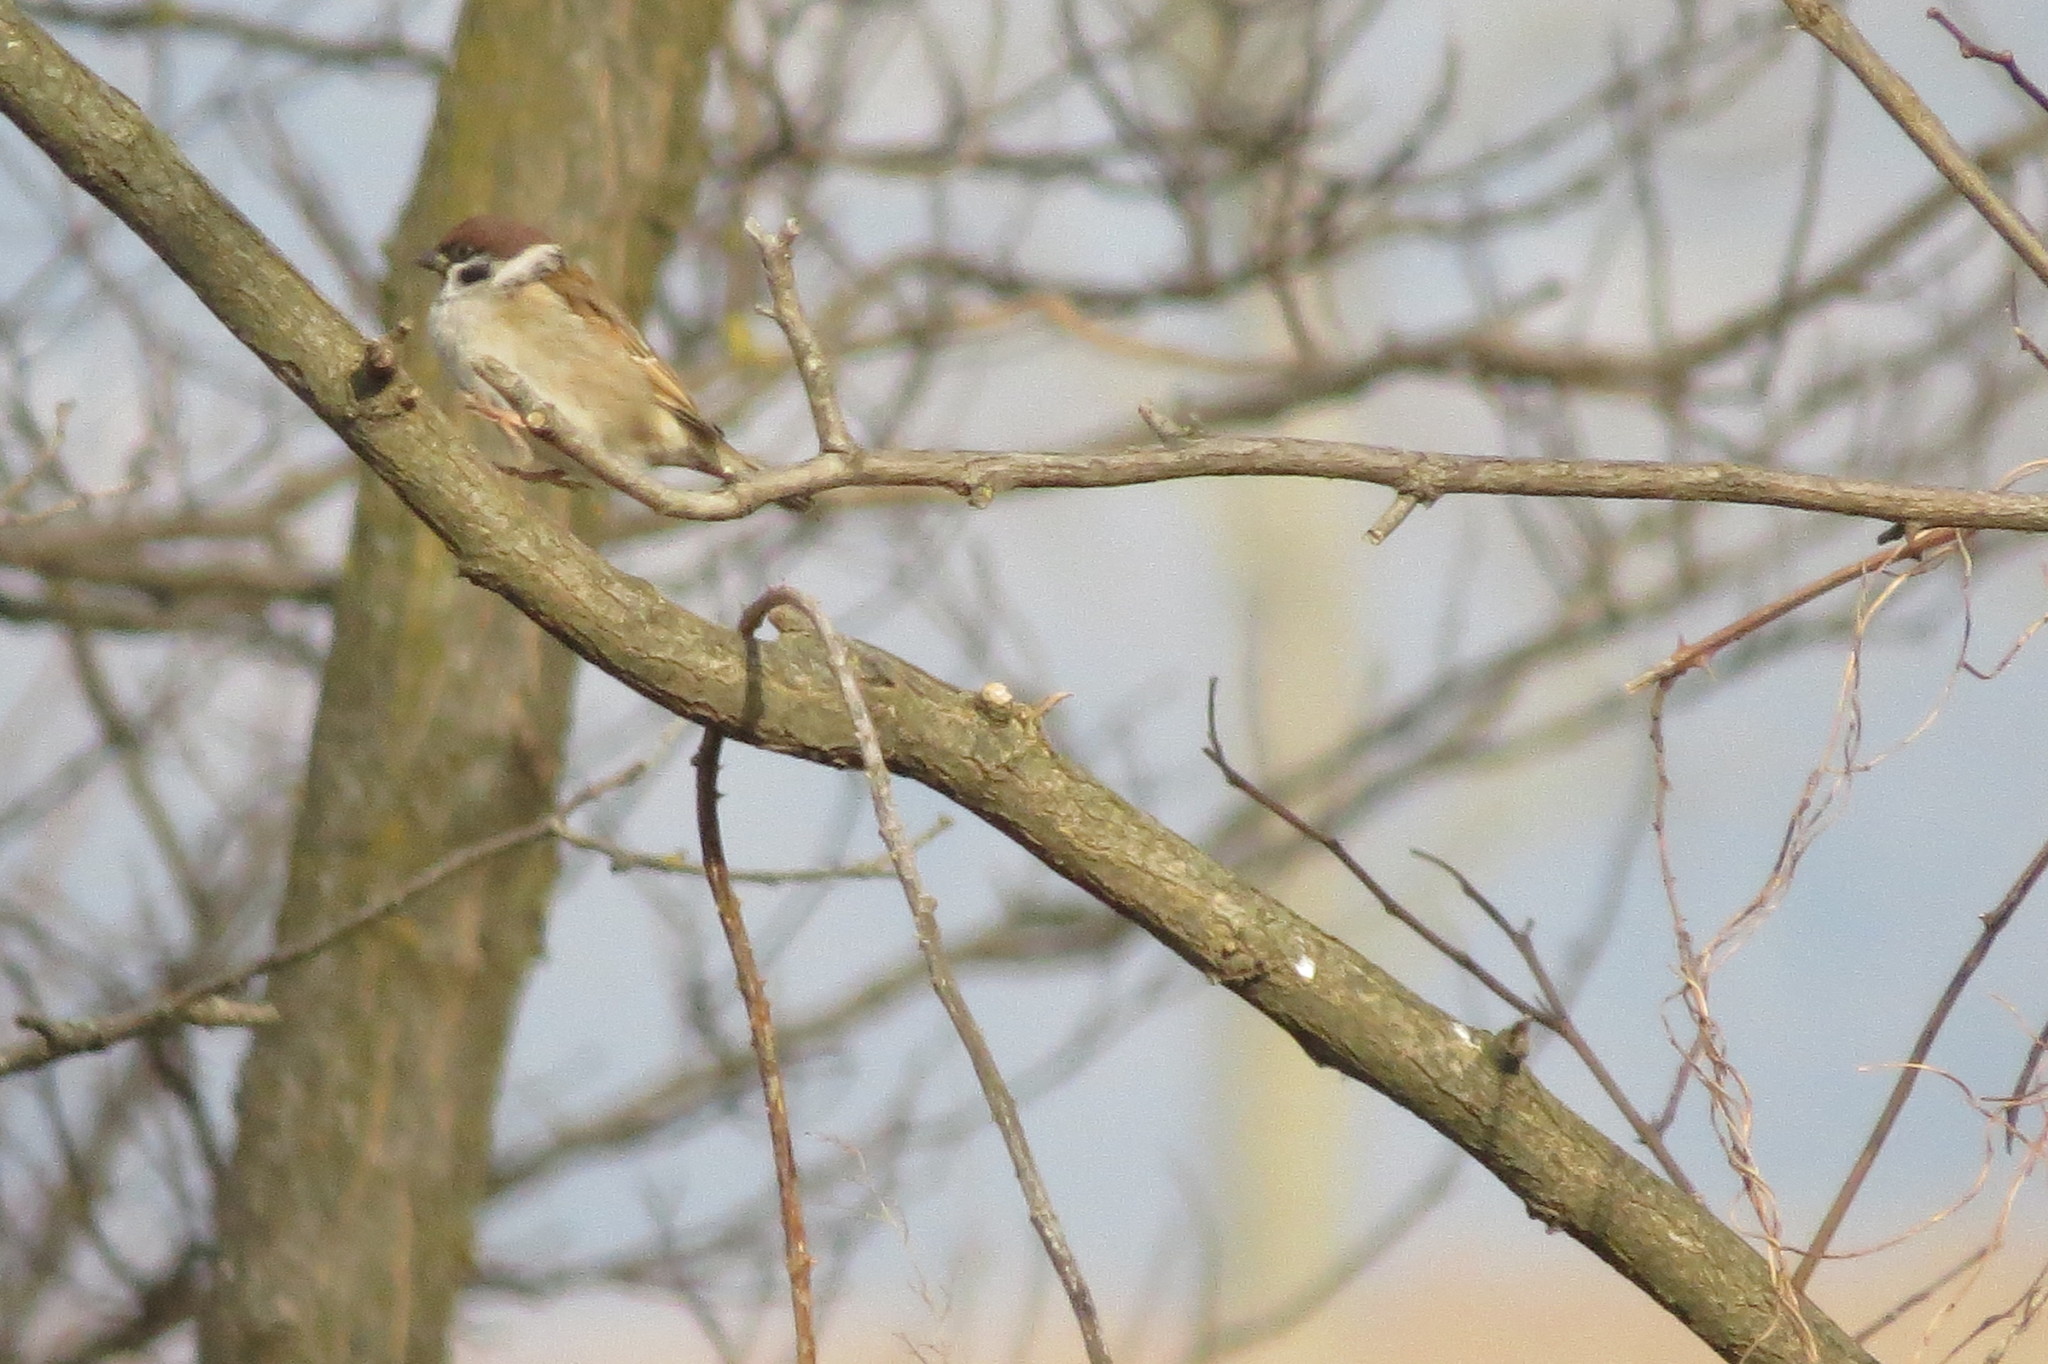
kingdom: Animalia
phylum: Chordata
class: Aves
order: Passeriformes
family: Passeridae
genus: Passer
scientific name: Passer montanus
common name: Eurasian tree sparrow
